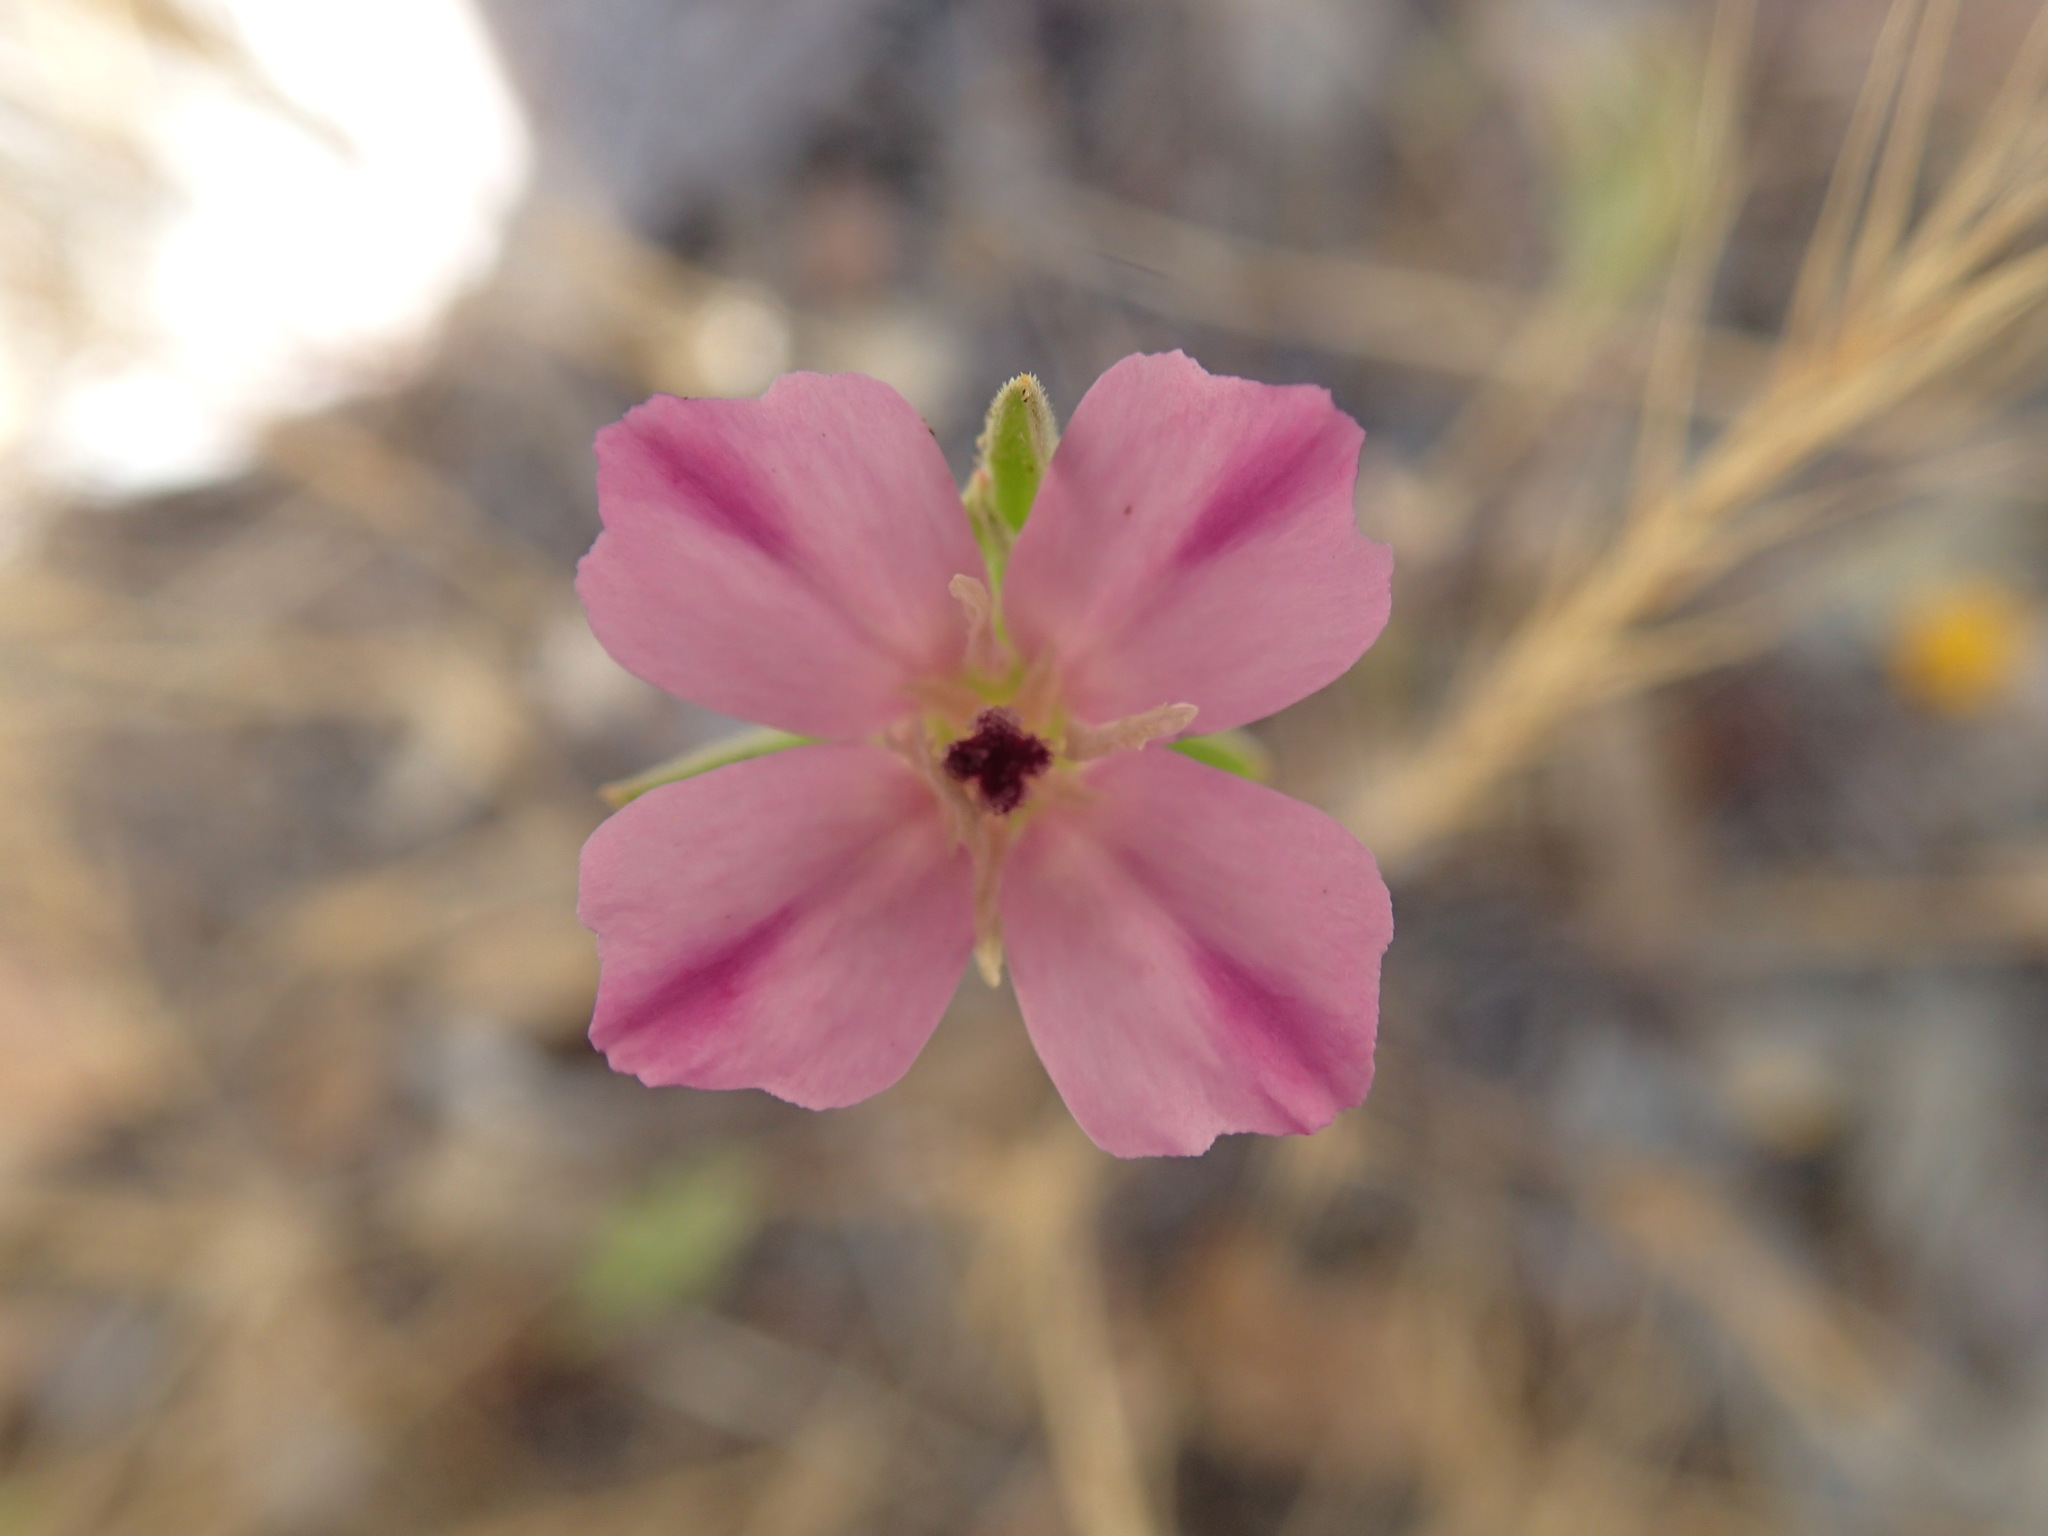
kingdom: Plantae
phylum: Tracheophyta
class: Magnoliopsida
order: Myrtales
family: Onagraceae
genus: Clarkia
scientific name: Clarkia purpurea
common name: Purple clarkia
